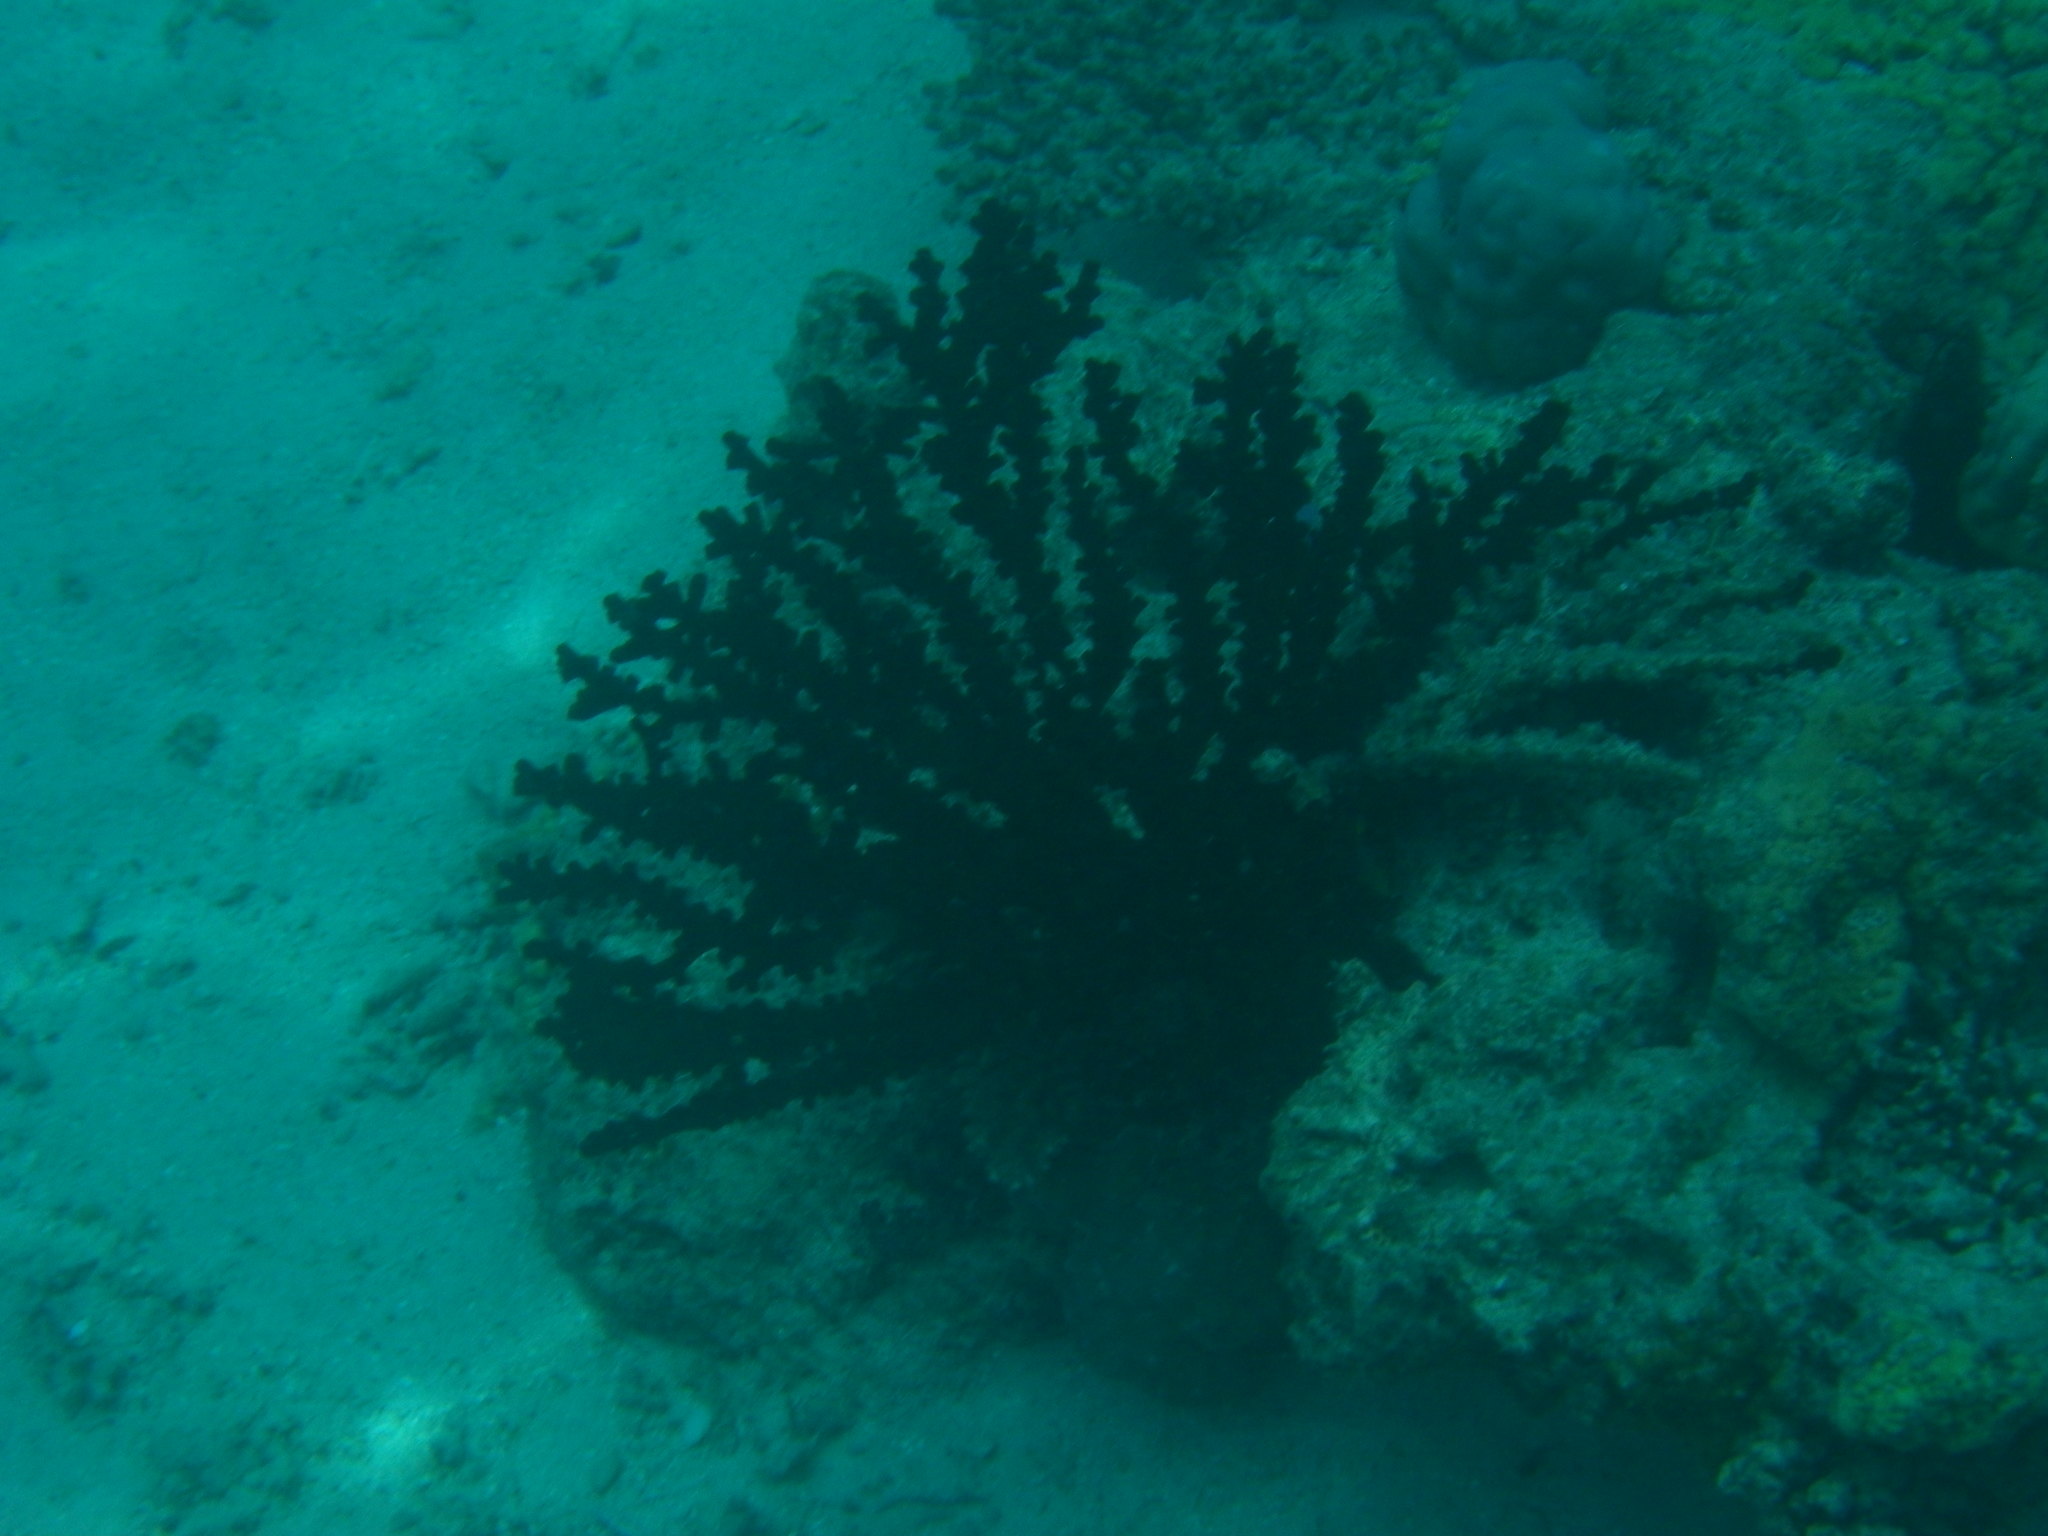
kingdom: Animalia
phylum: Cnidaria
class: Anthozoa
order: Scleractinia
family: Dendrophylliidae
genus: Tubastraea
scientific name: Tubastraea micranthus
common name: Black sun coral
